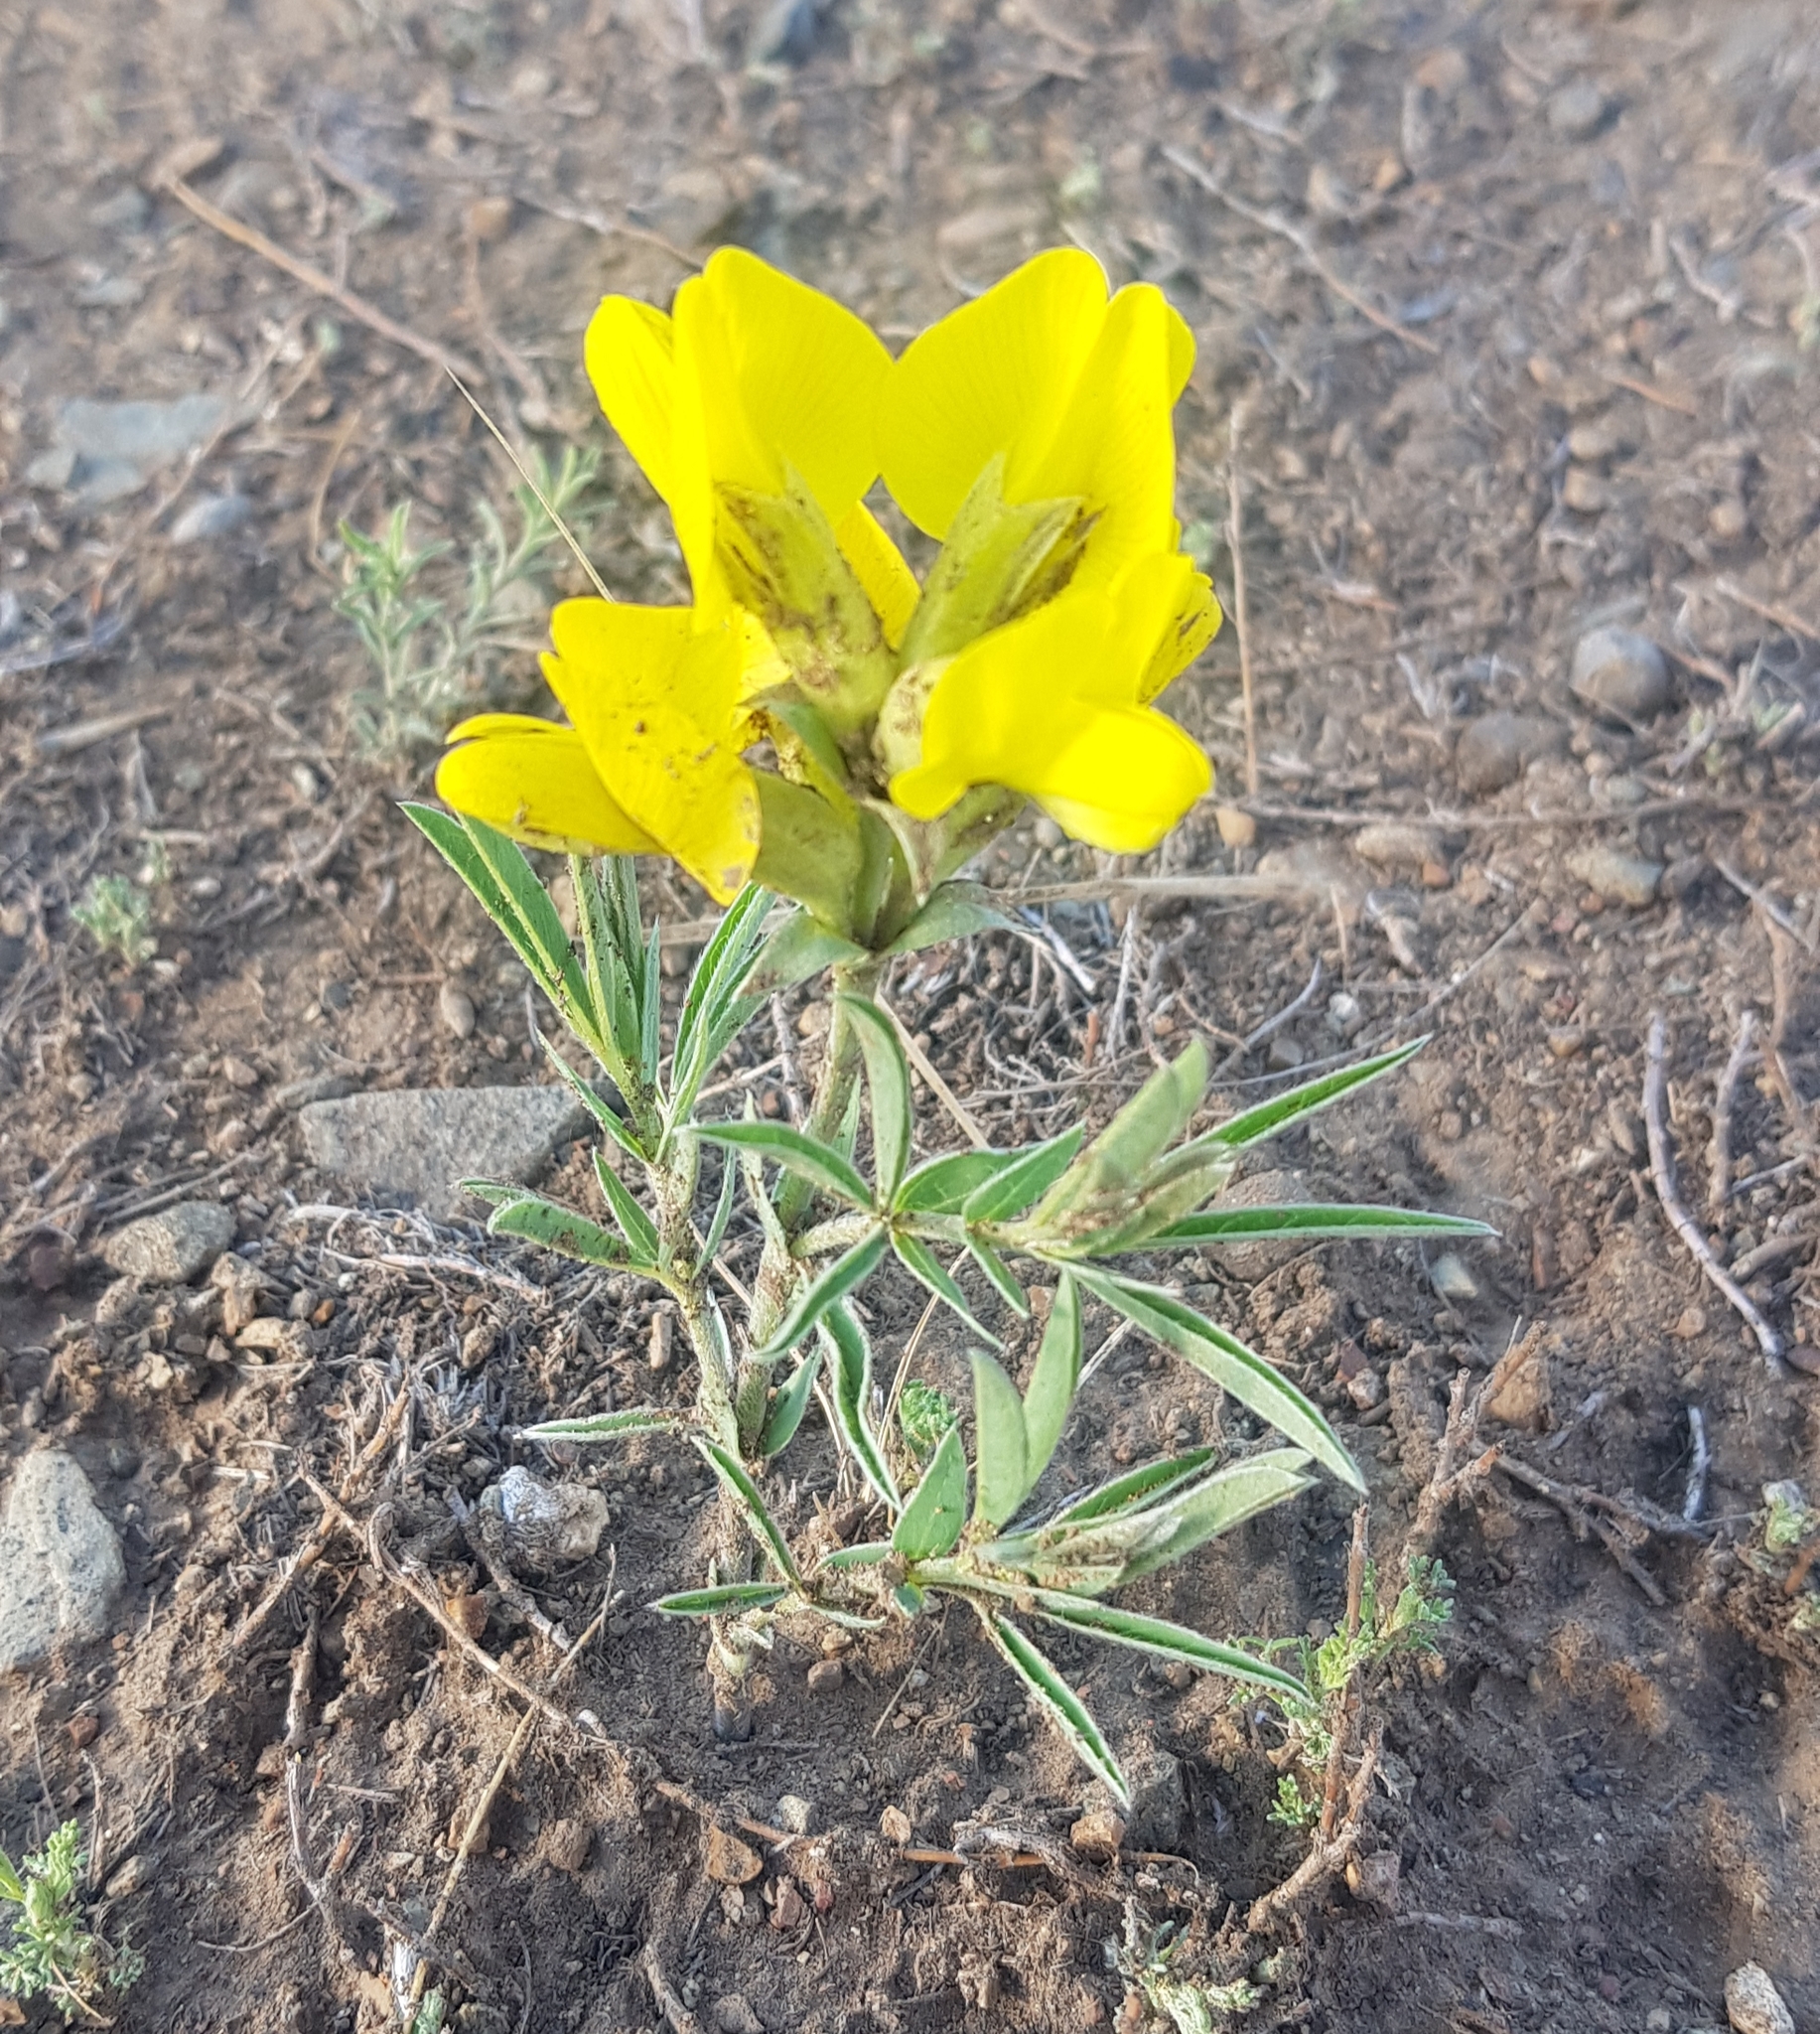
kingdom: Plantae
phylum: Tracheophyta
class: Magnoliopsida
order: Fabales
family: Fabaceae
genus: Thermopsis
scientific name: Thermopsis lanceolata
